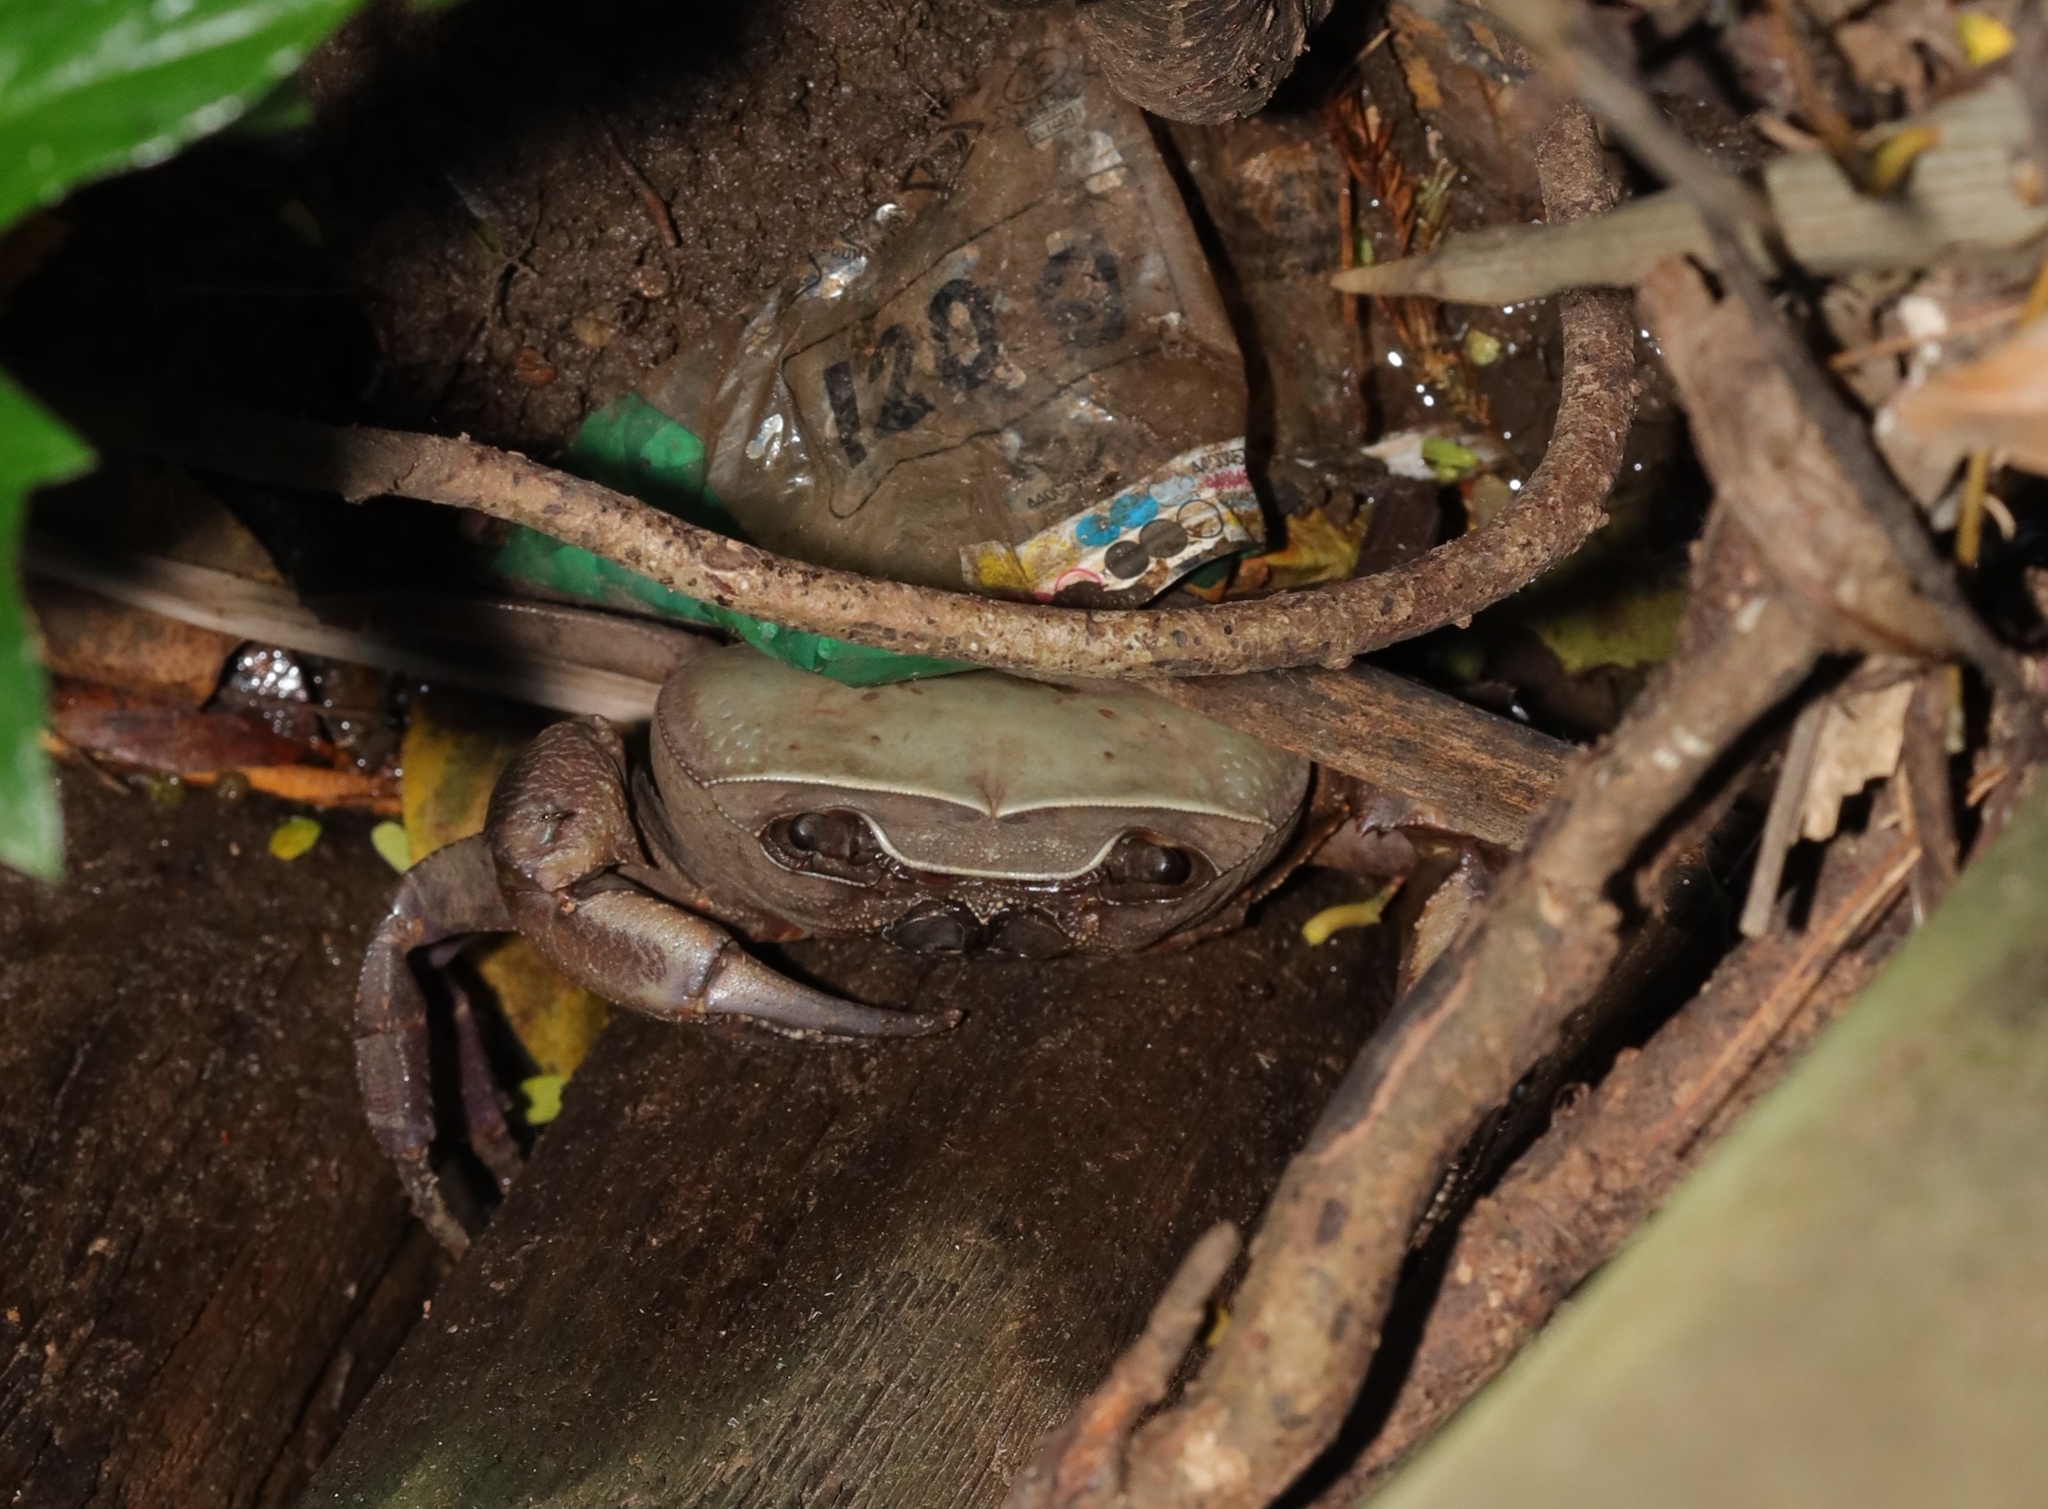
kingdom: Animalia
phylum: Arthropoda
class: Malacostraca
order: Decapoda
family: Potamonautidae
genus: Potamonautes
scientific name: Potamonautes sidneyi
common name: Natal river crab
